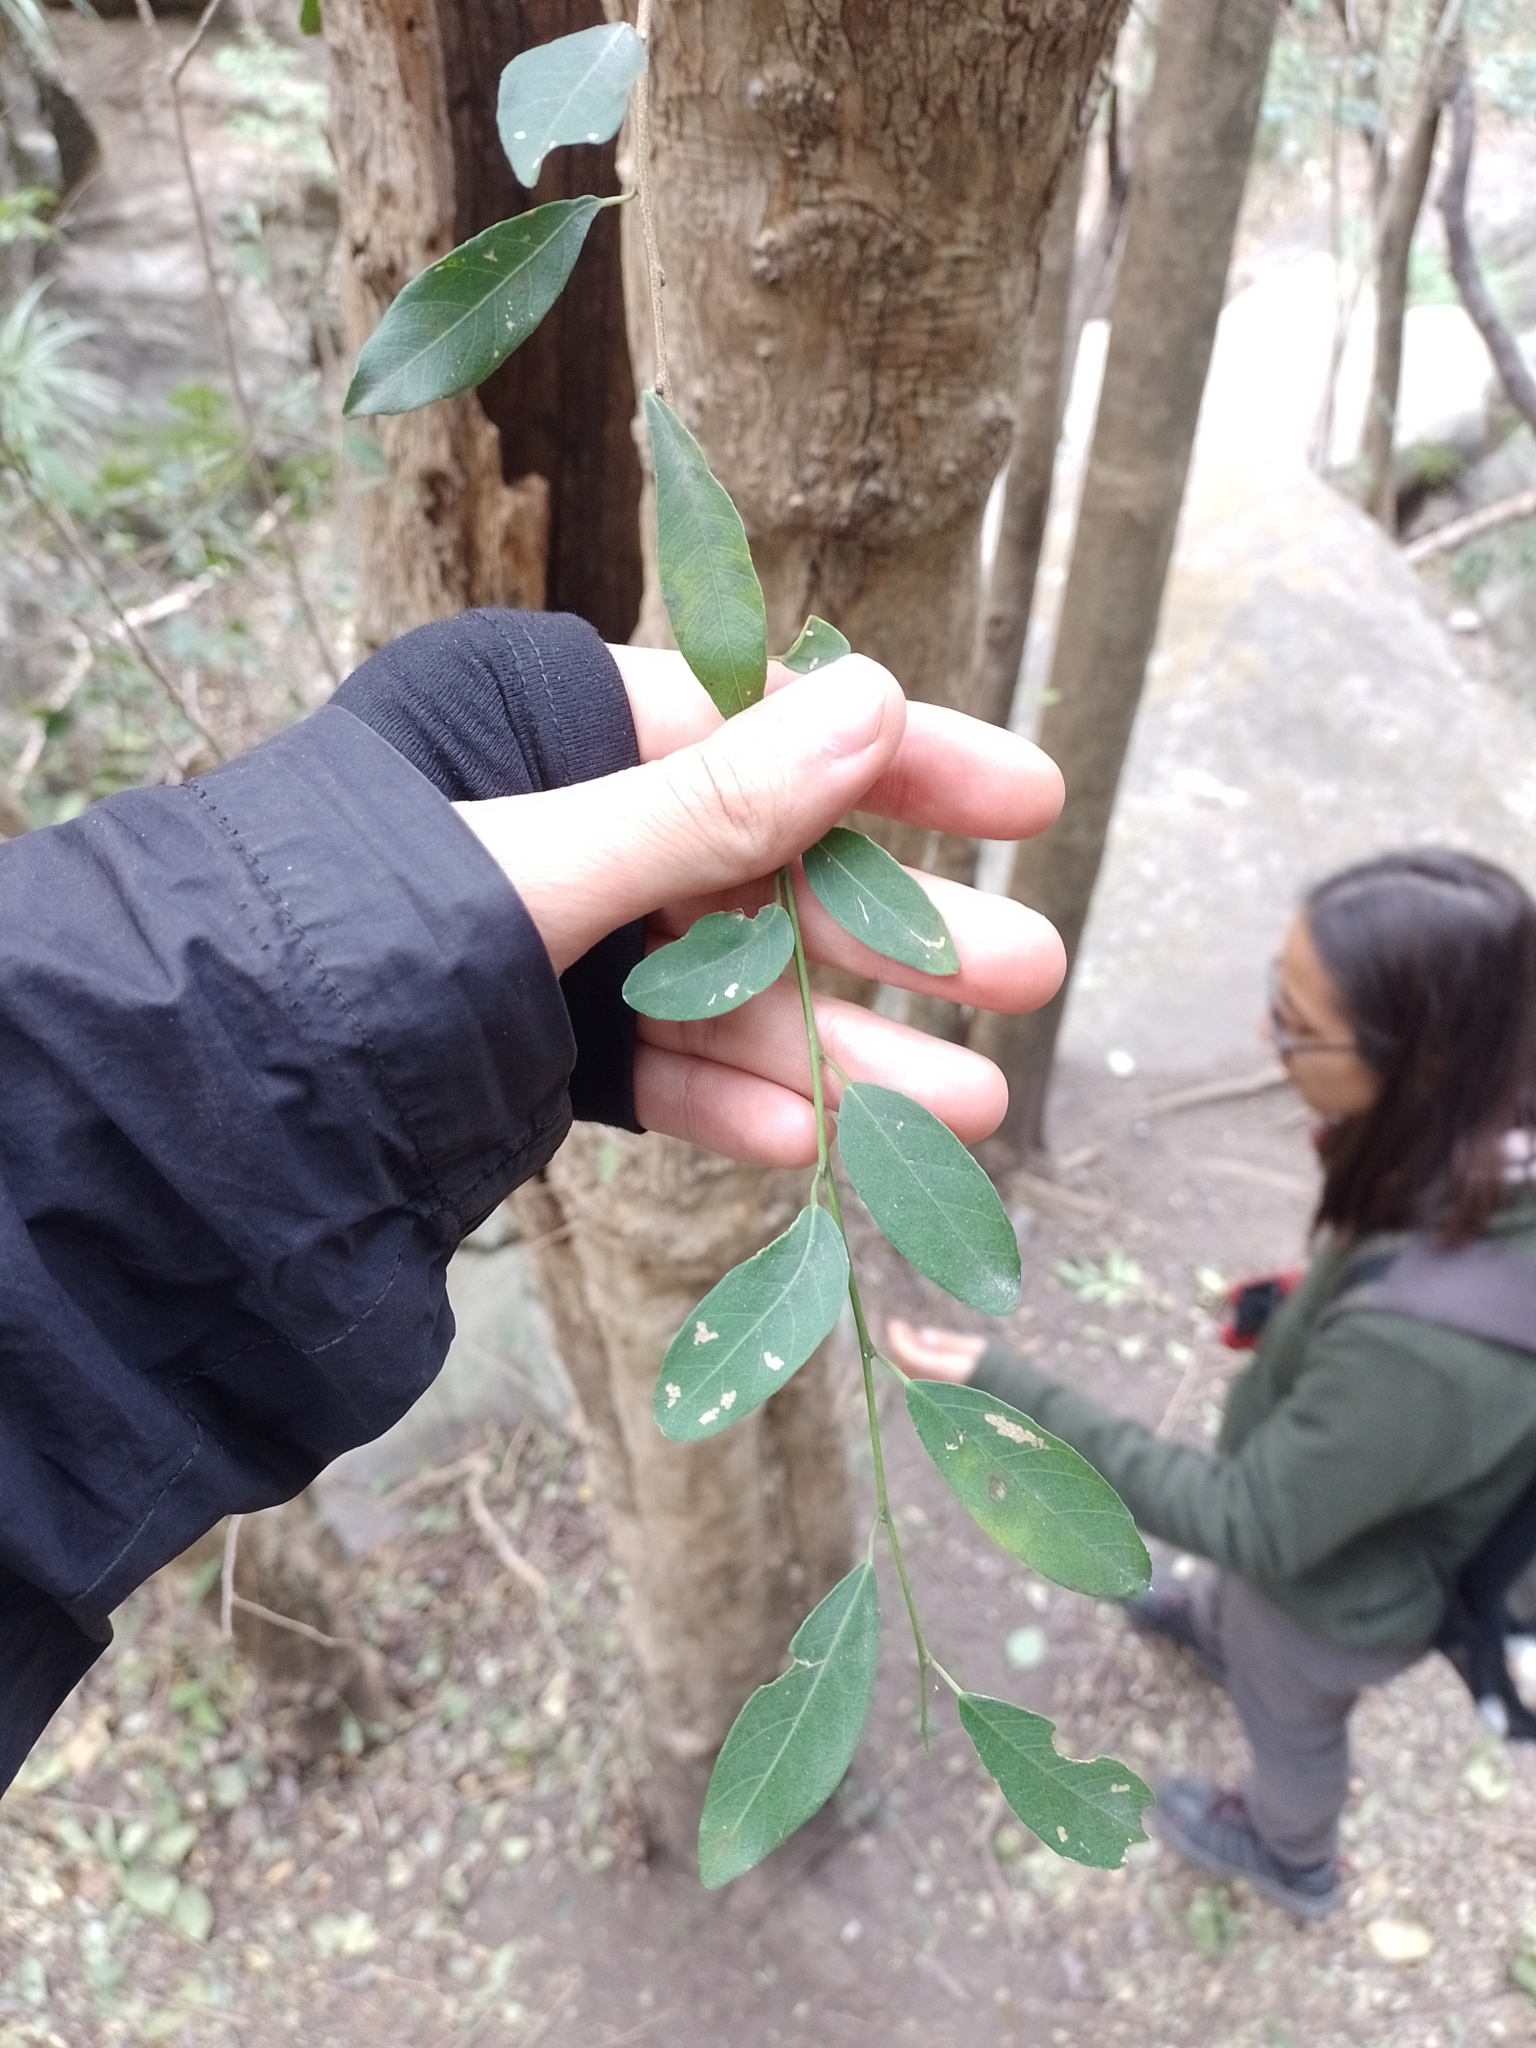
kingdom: Plantae
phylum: Tracheophyta
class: Magnoliopsida
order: Malpighiales
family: Euphorbiaceae
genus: Sebastiania
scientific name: Sebastiania klotzschiana
